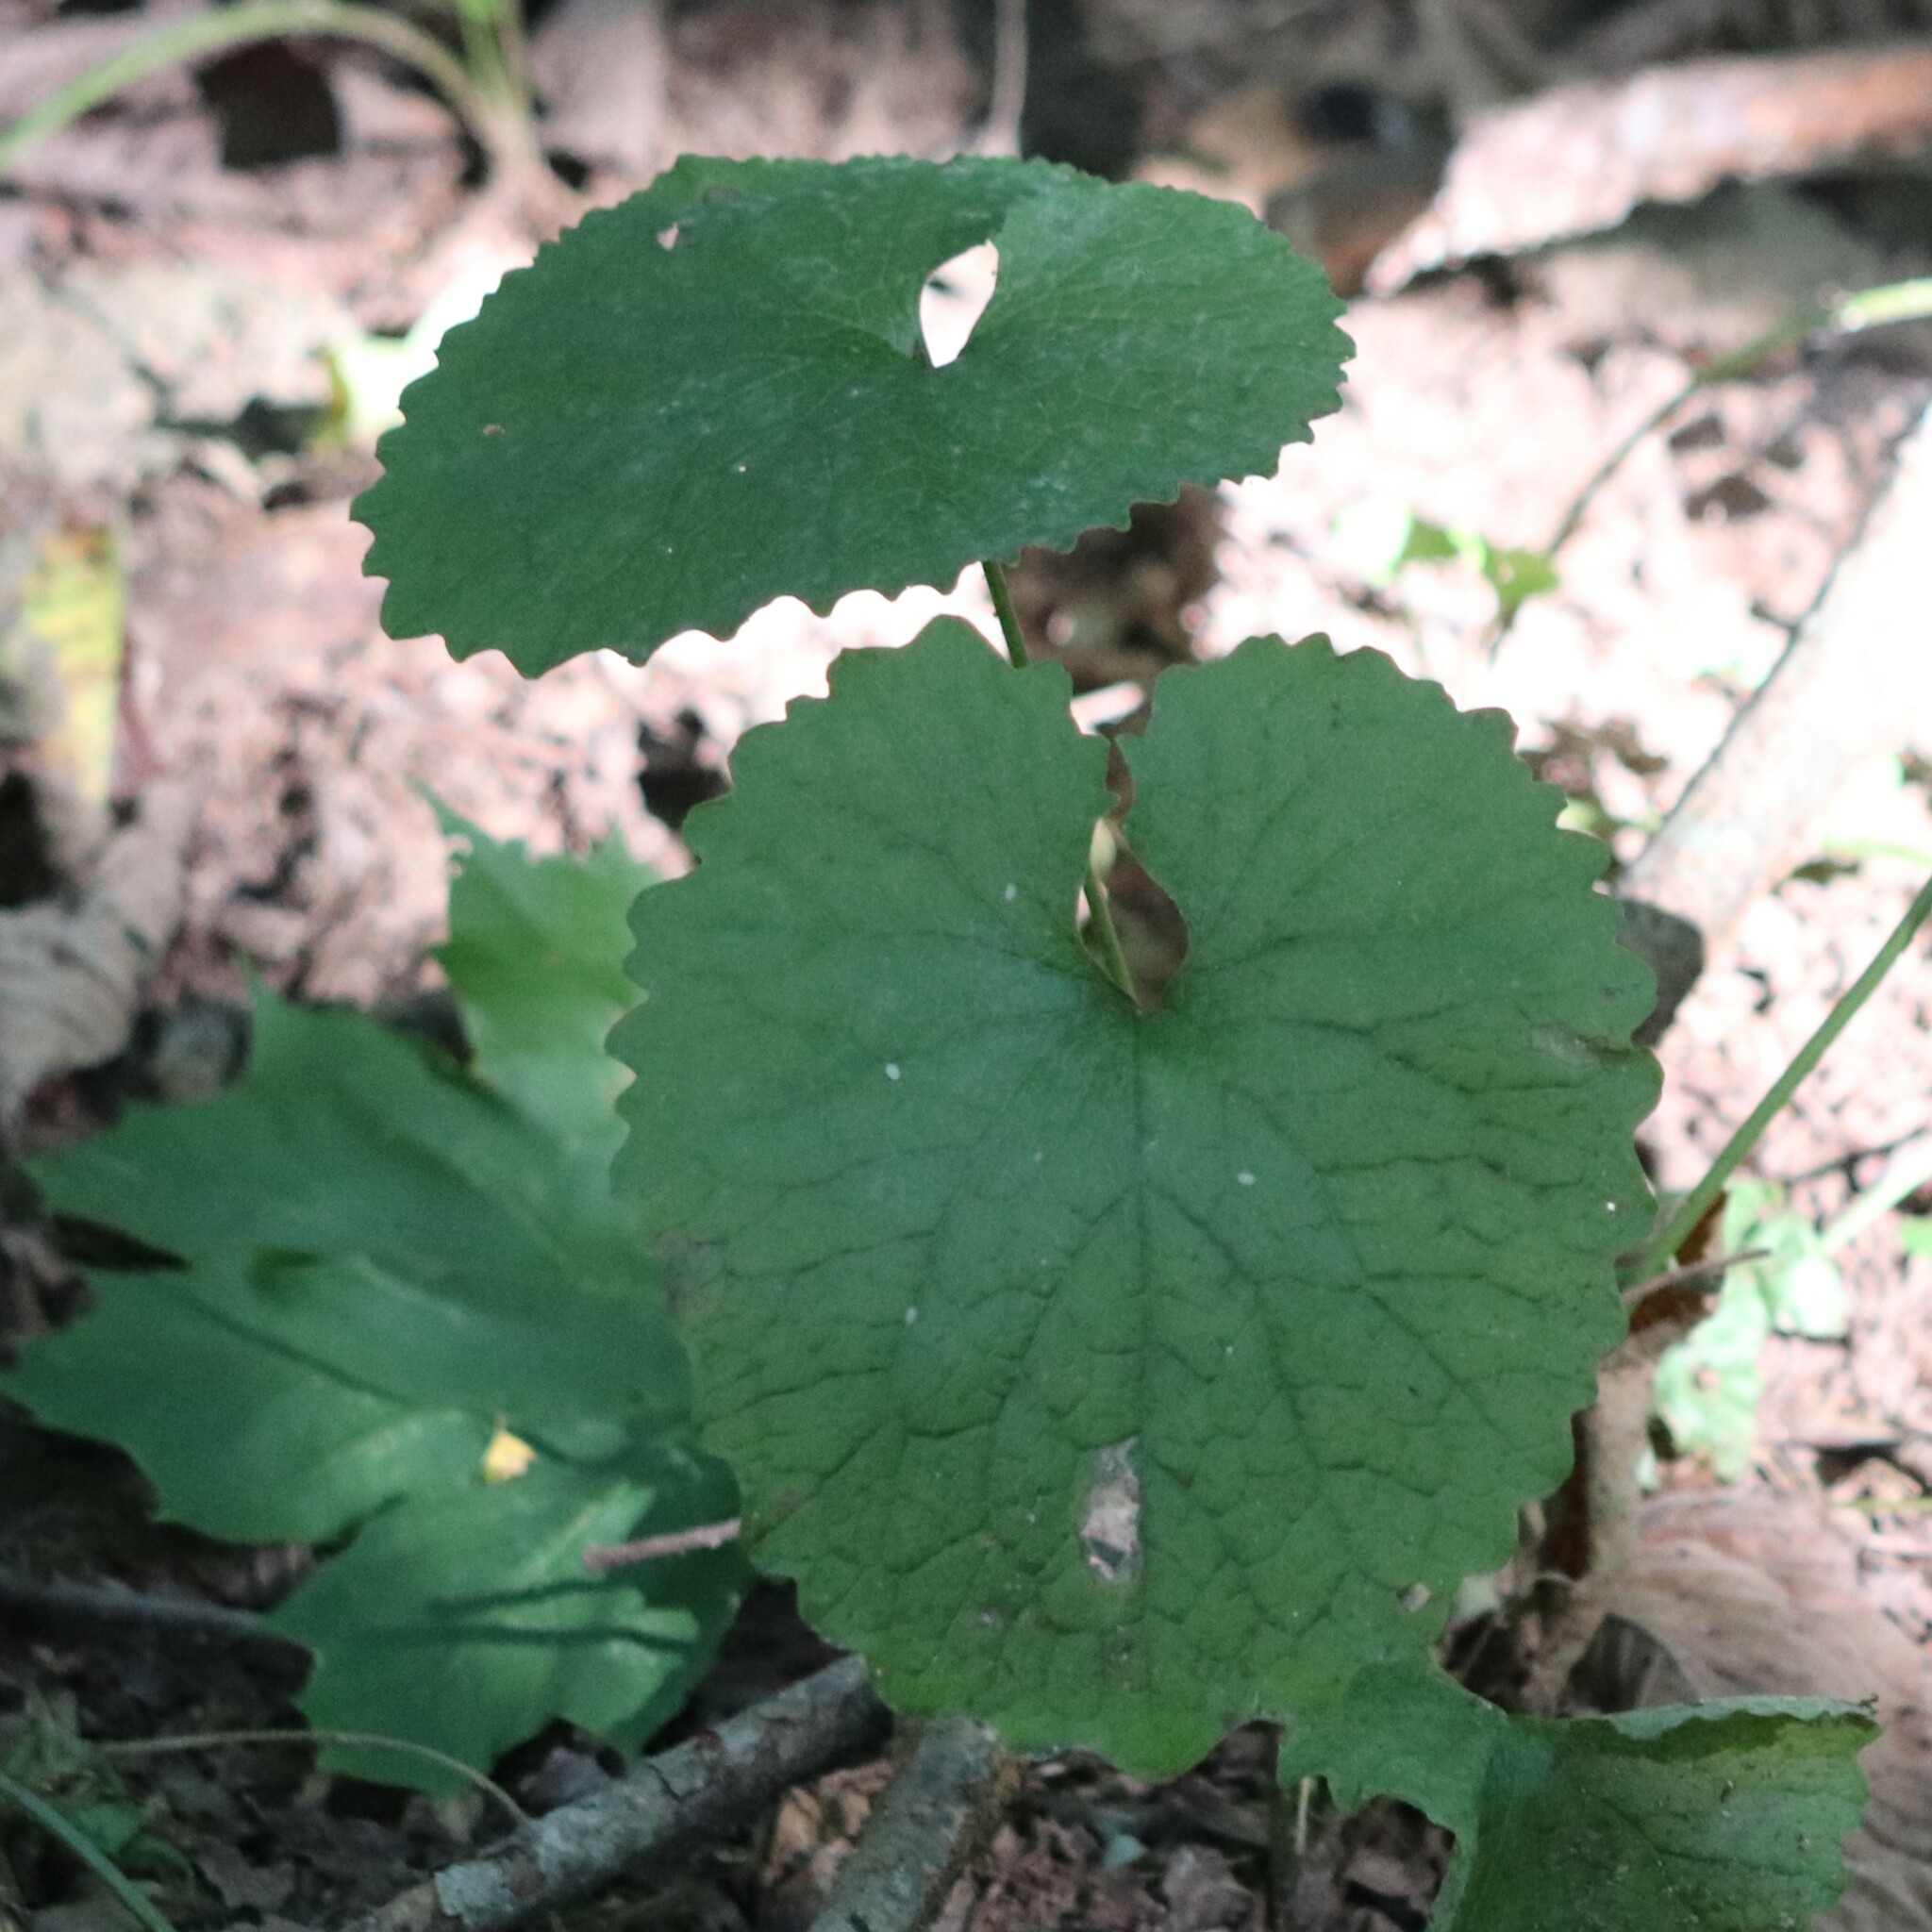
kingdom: Plantae
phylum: Tracheophyta
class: Magnoliopsida
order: Brassicales
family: Brassicaceae
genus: Alliaria
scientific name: Alliaria petiolata
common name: Garlic mustard
